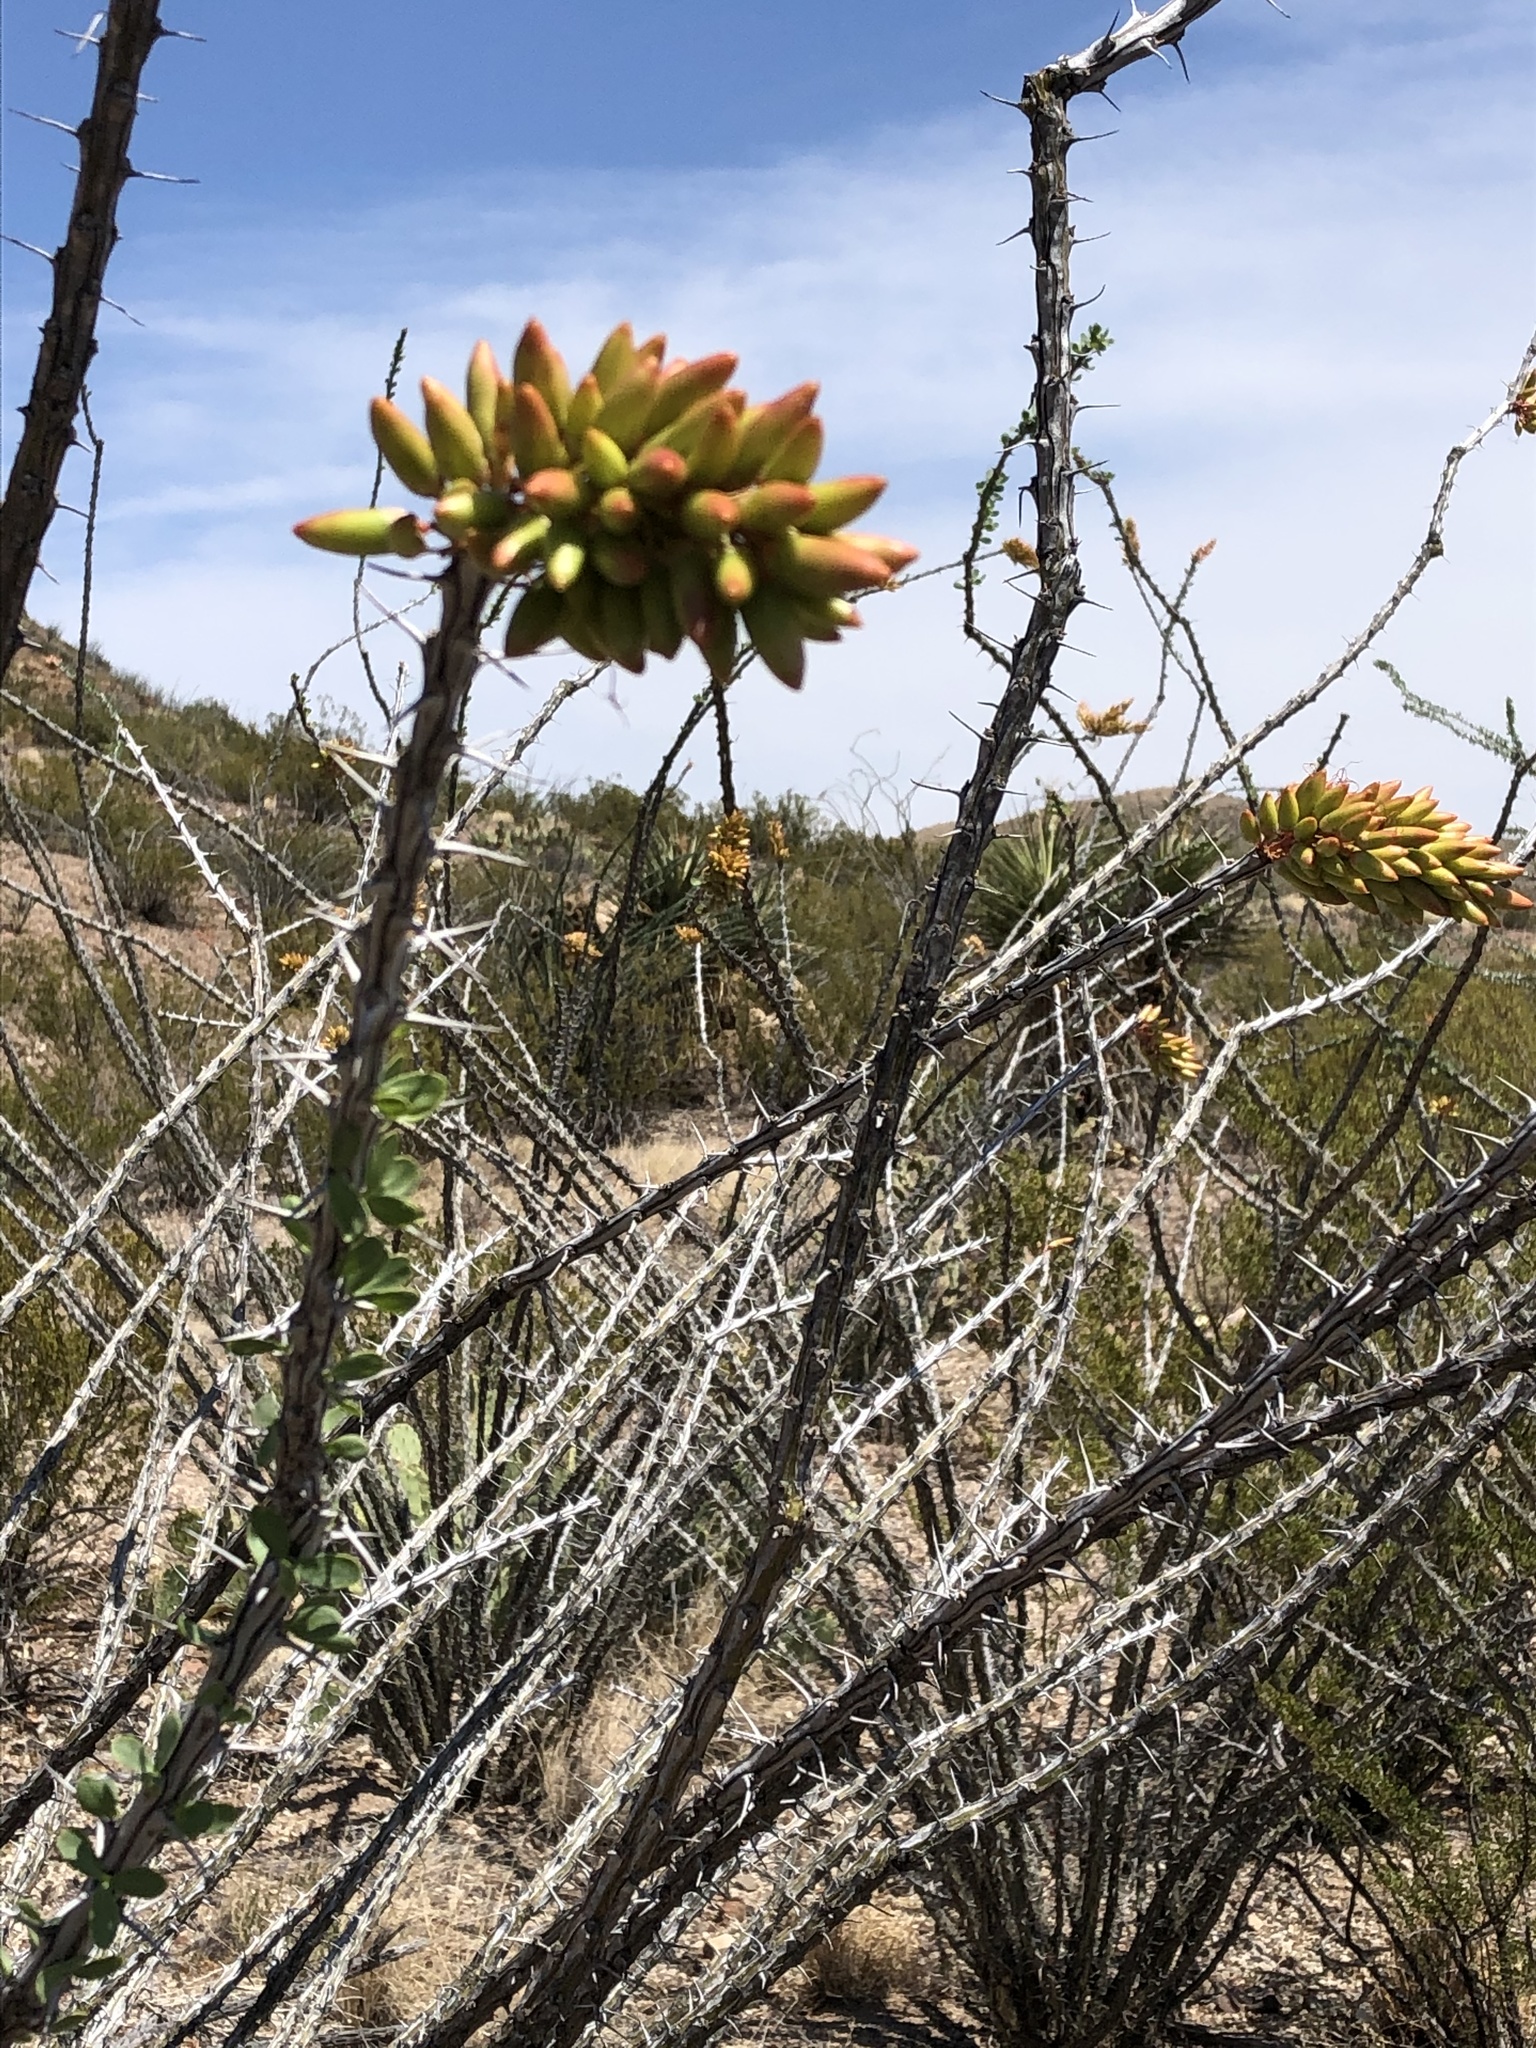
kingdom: Plantae
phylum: Tracheophyta
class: Magnoliopsida
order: Ericales
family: Fouquieriaceae
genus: Fouquieria
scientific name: Fouquieria splendens
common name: Vine-cactus
